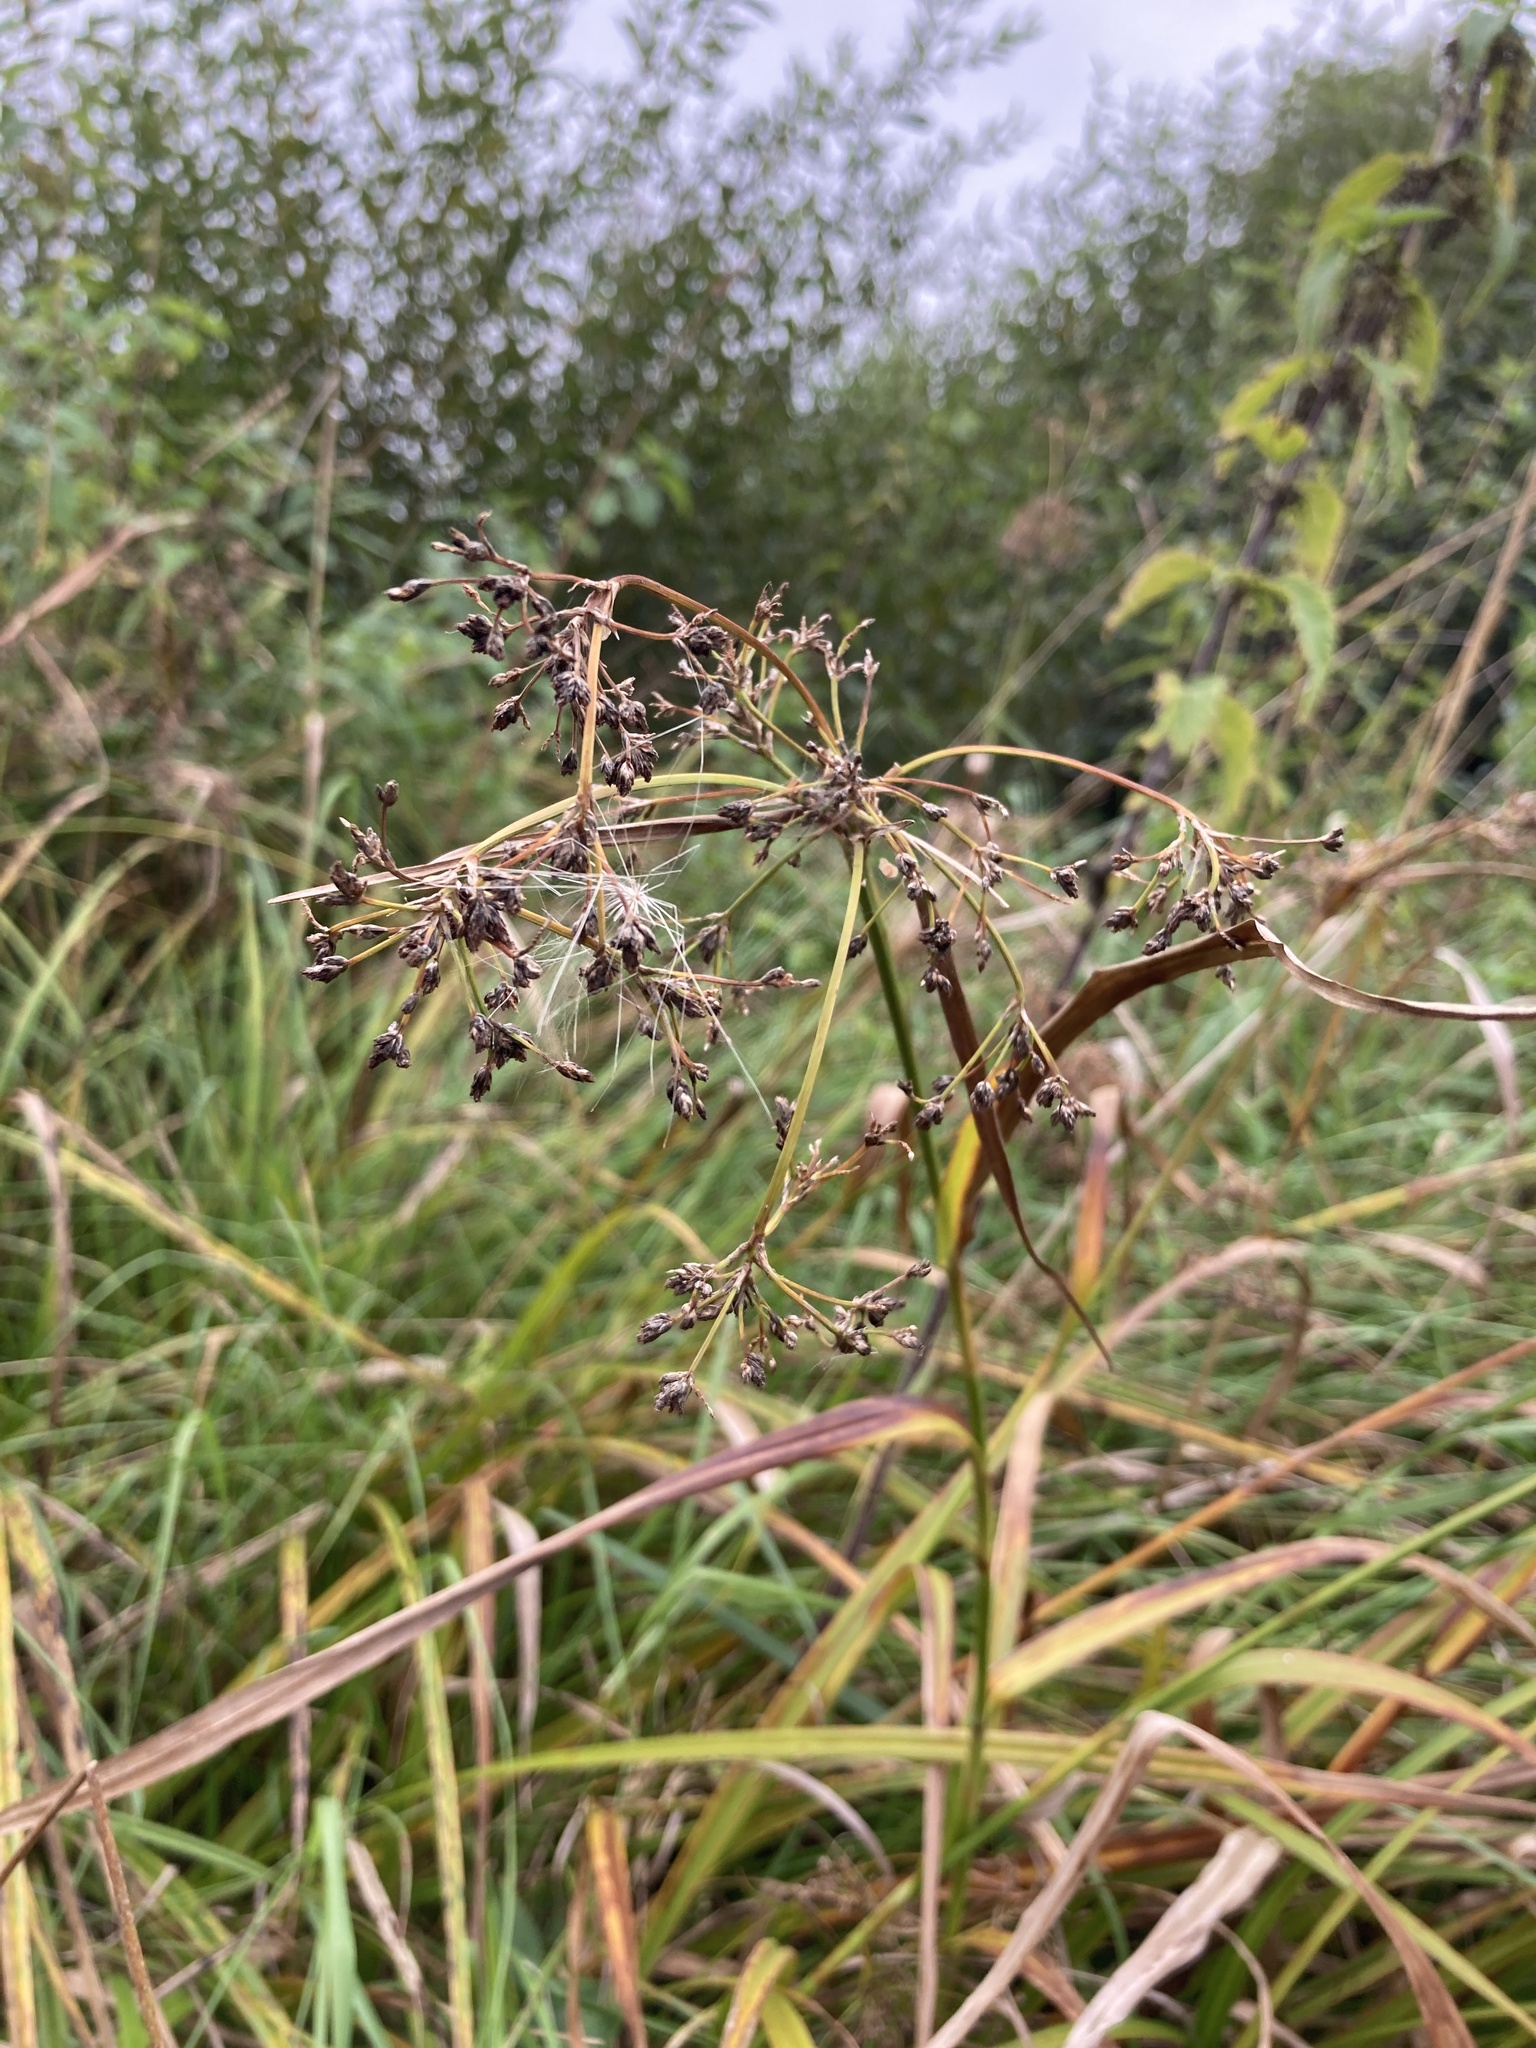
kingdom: Plantae
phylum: Tracheophyta
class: Liliopsida
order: Poales
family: Cyperaceae
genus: Scirpus
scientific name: Scirpus sylvaticus
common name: Wood club-rush
